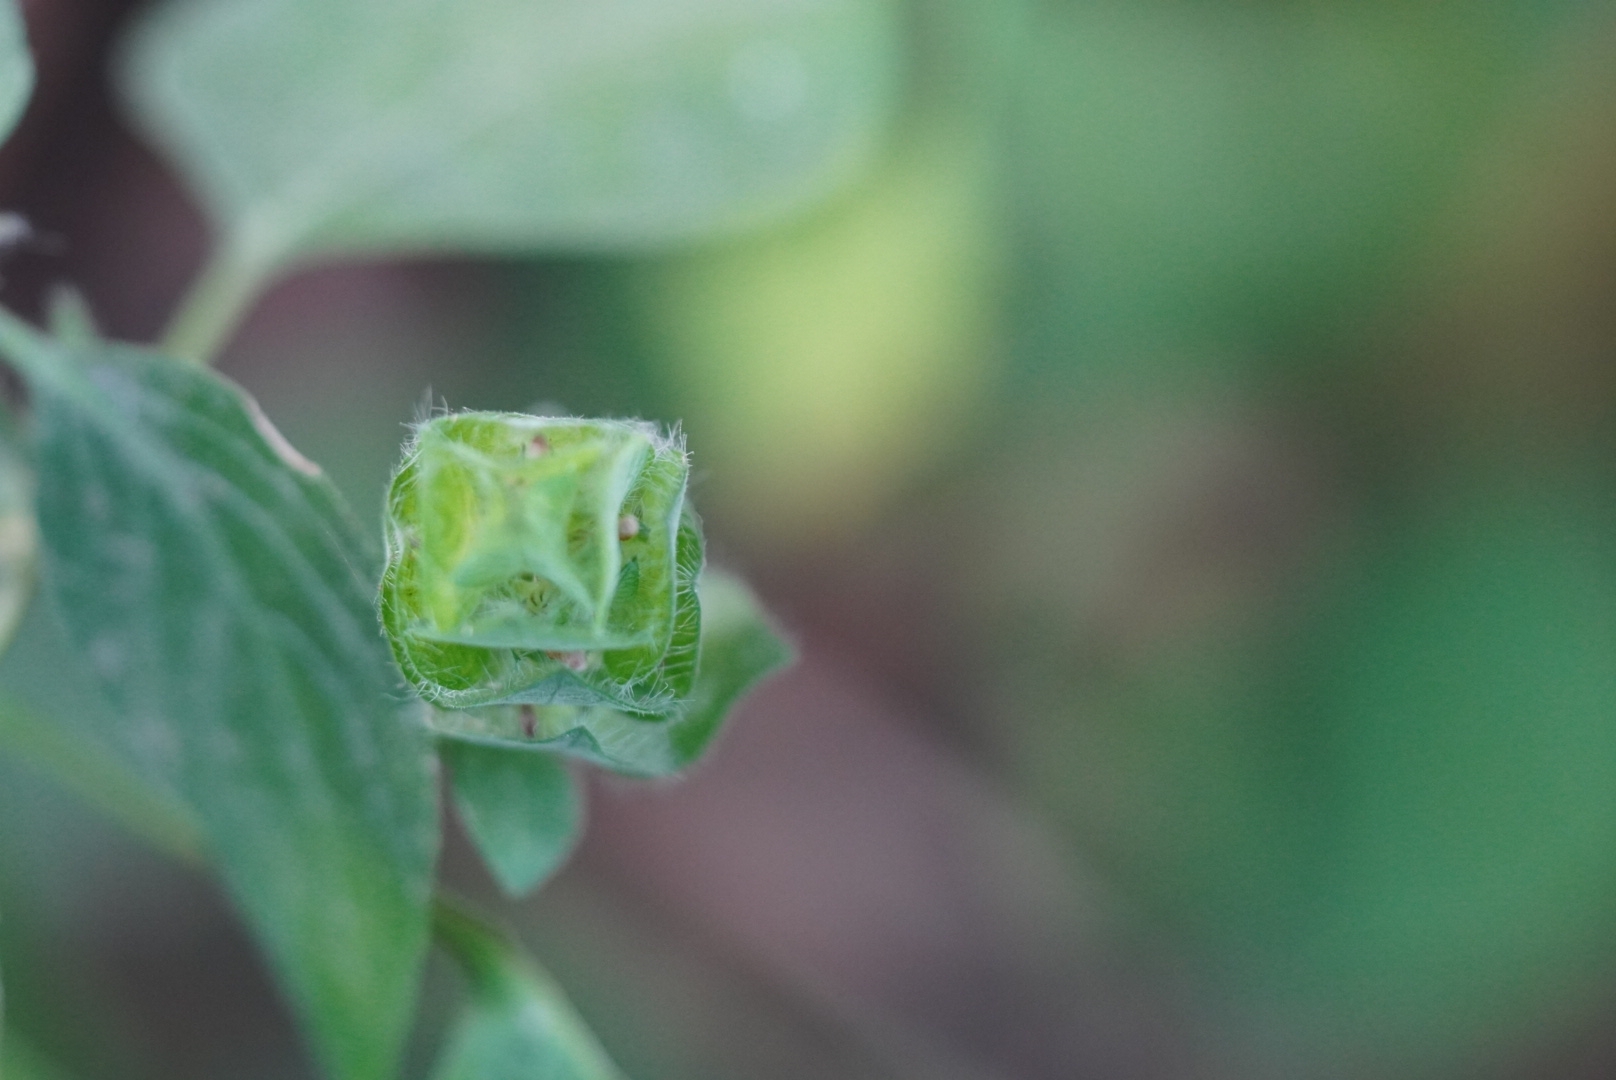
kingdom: Plantae
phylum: Tracheophyta
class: Magnoliopsida
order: Lamiales
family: Acanthaceae
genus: Ruellia
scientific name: Ruellia blechum
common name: Browne's blechum
